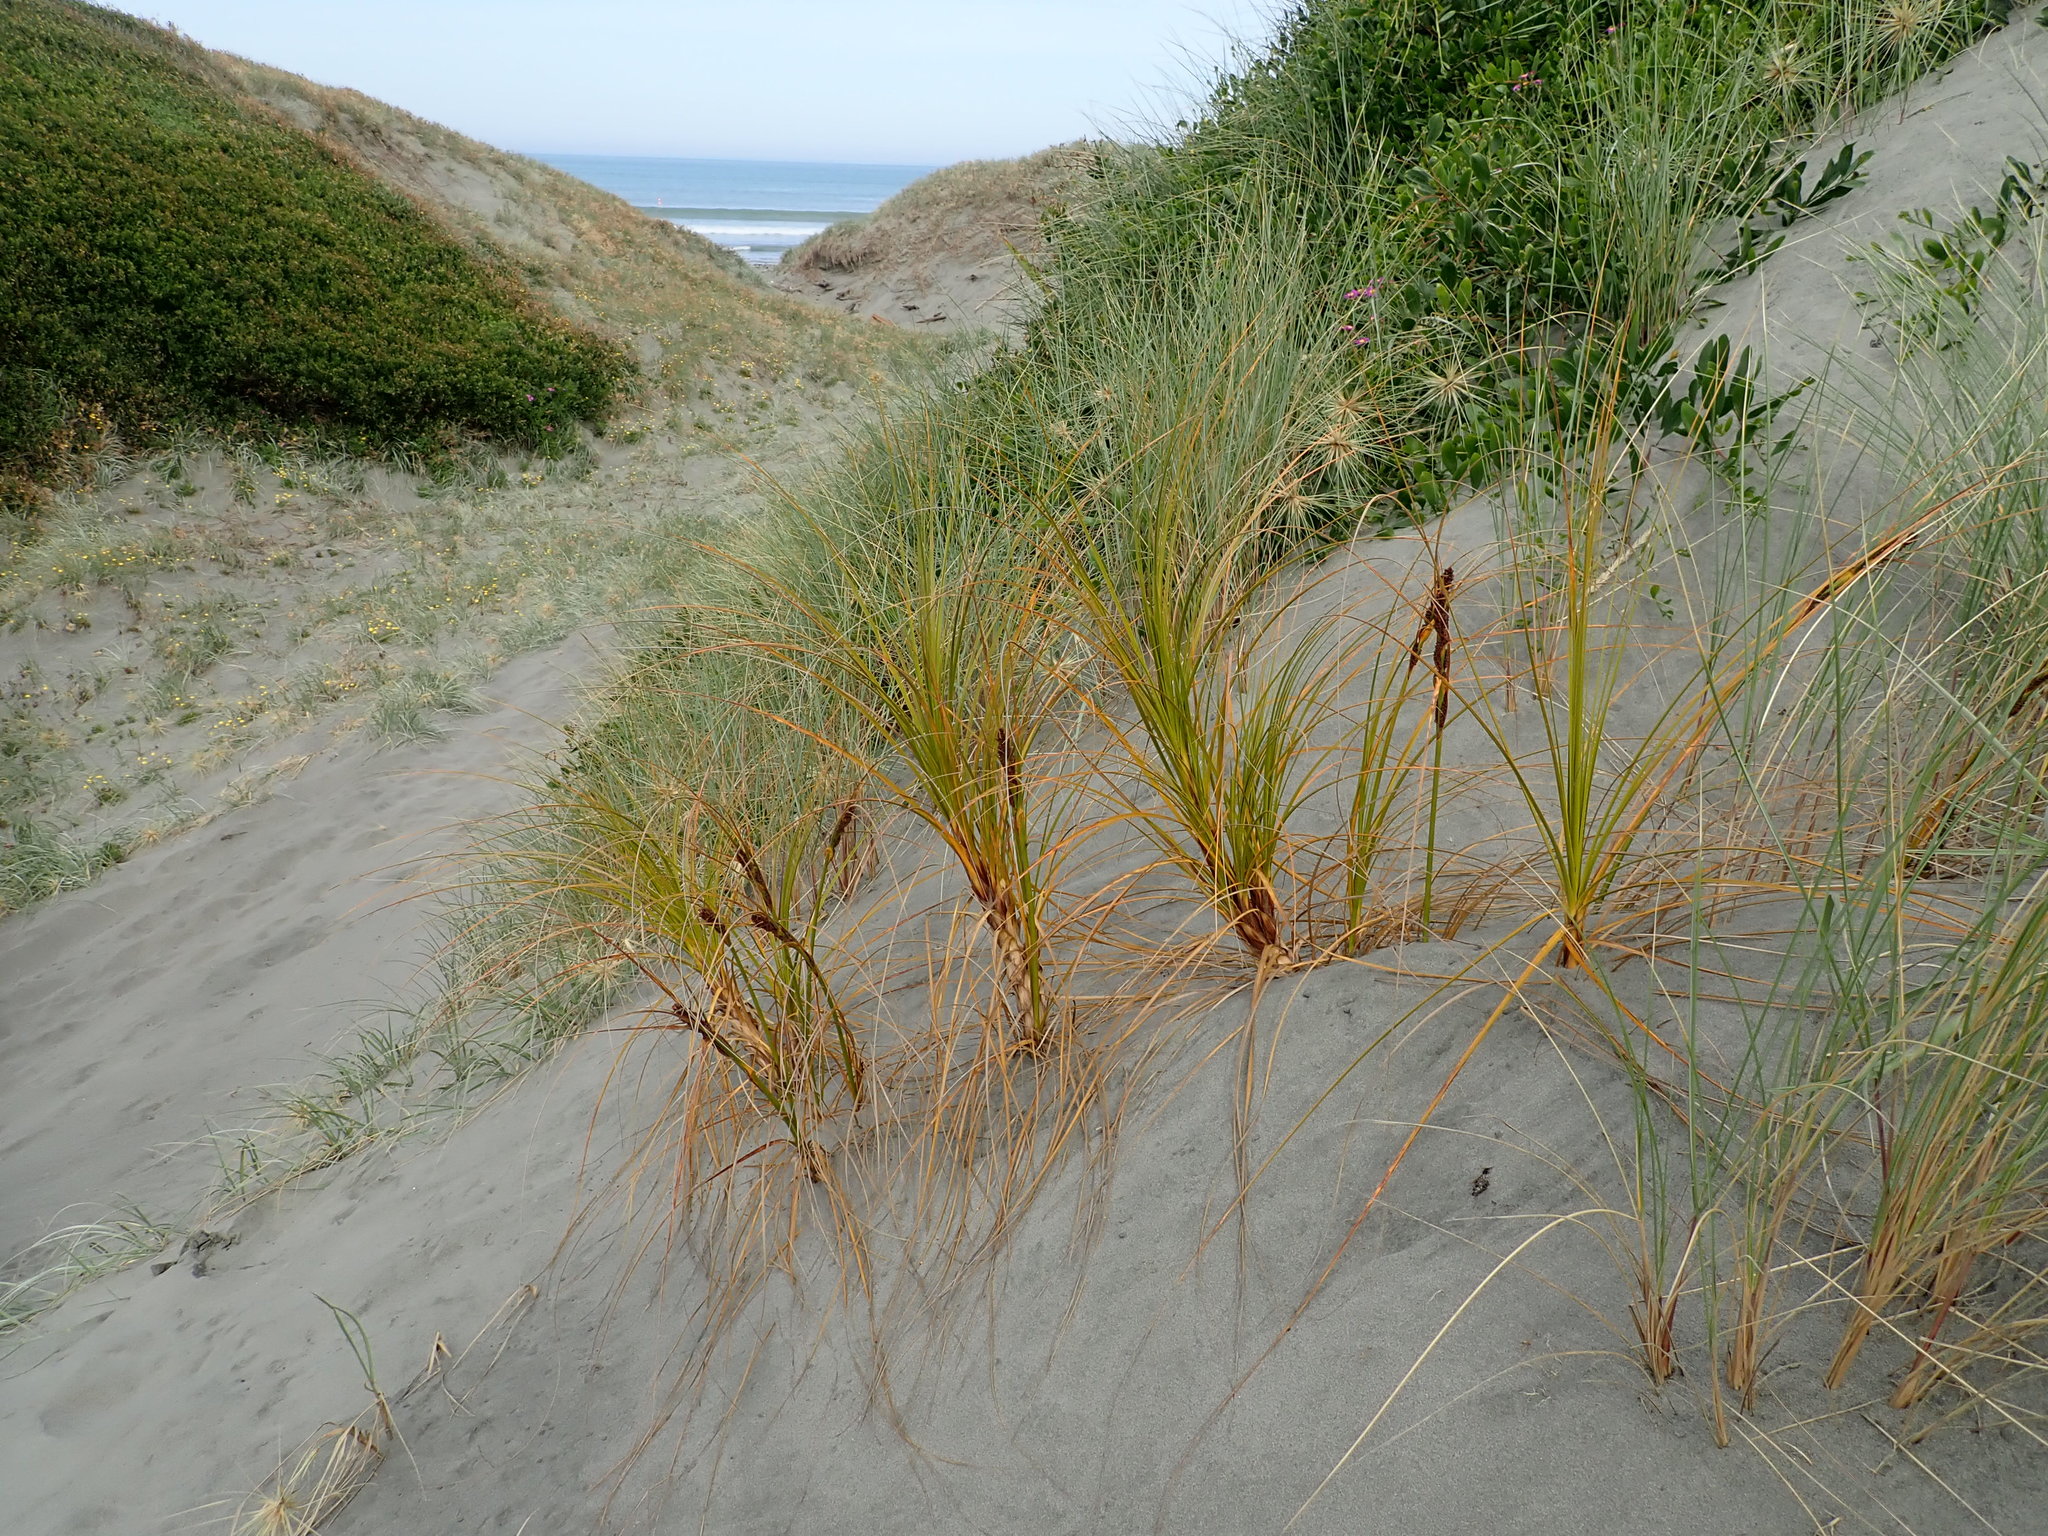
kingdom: Plantae
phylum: Tracheophyta
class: Liliopsida
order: Poales
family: Cyperaceae
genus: Ficinia
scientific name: Ficinia spiralis
